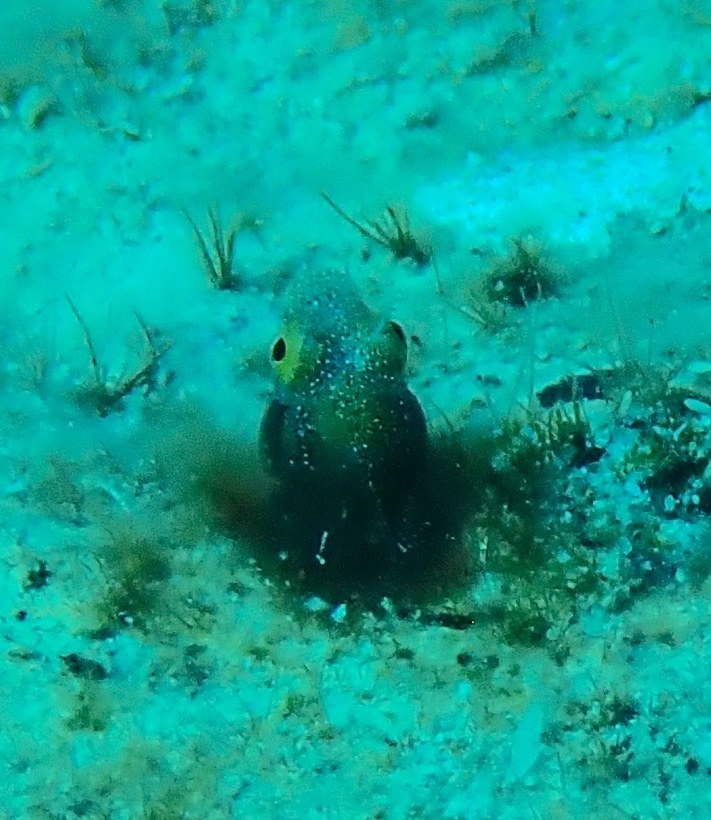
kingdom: Animalia
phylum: Chordata
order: Perciformes
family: Chaenopsidae
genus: Acanthemblemaria
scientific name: Acanthemblemaria spinosa
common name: Spinyhead blenny
